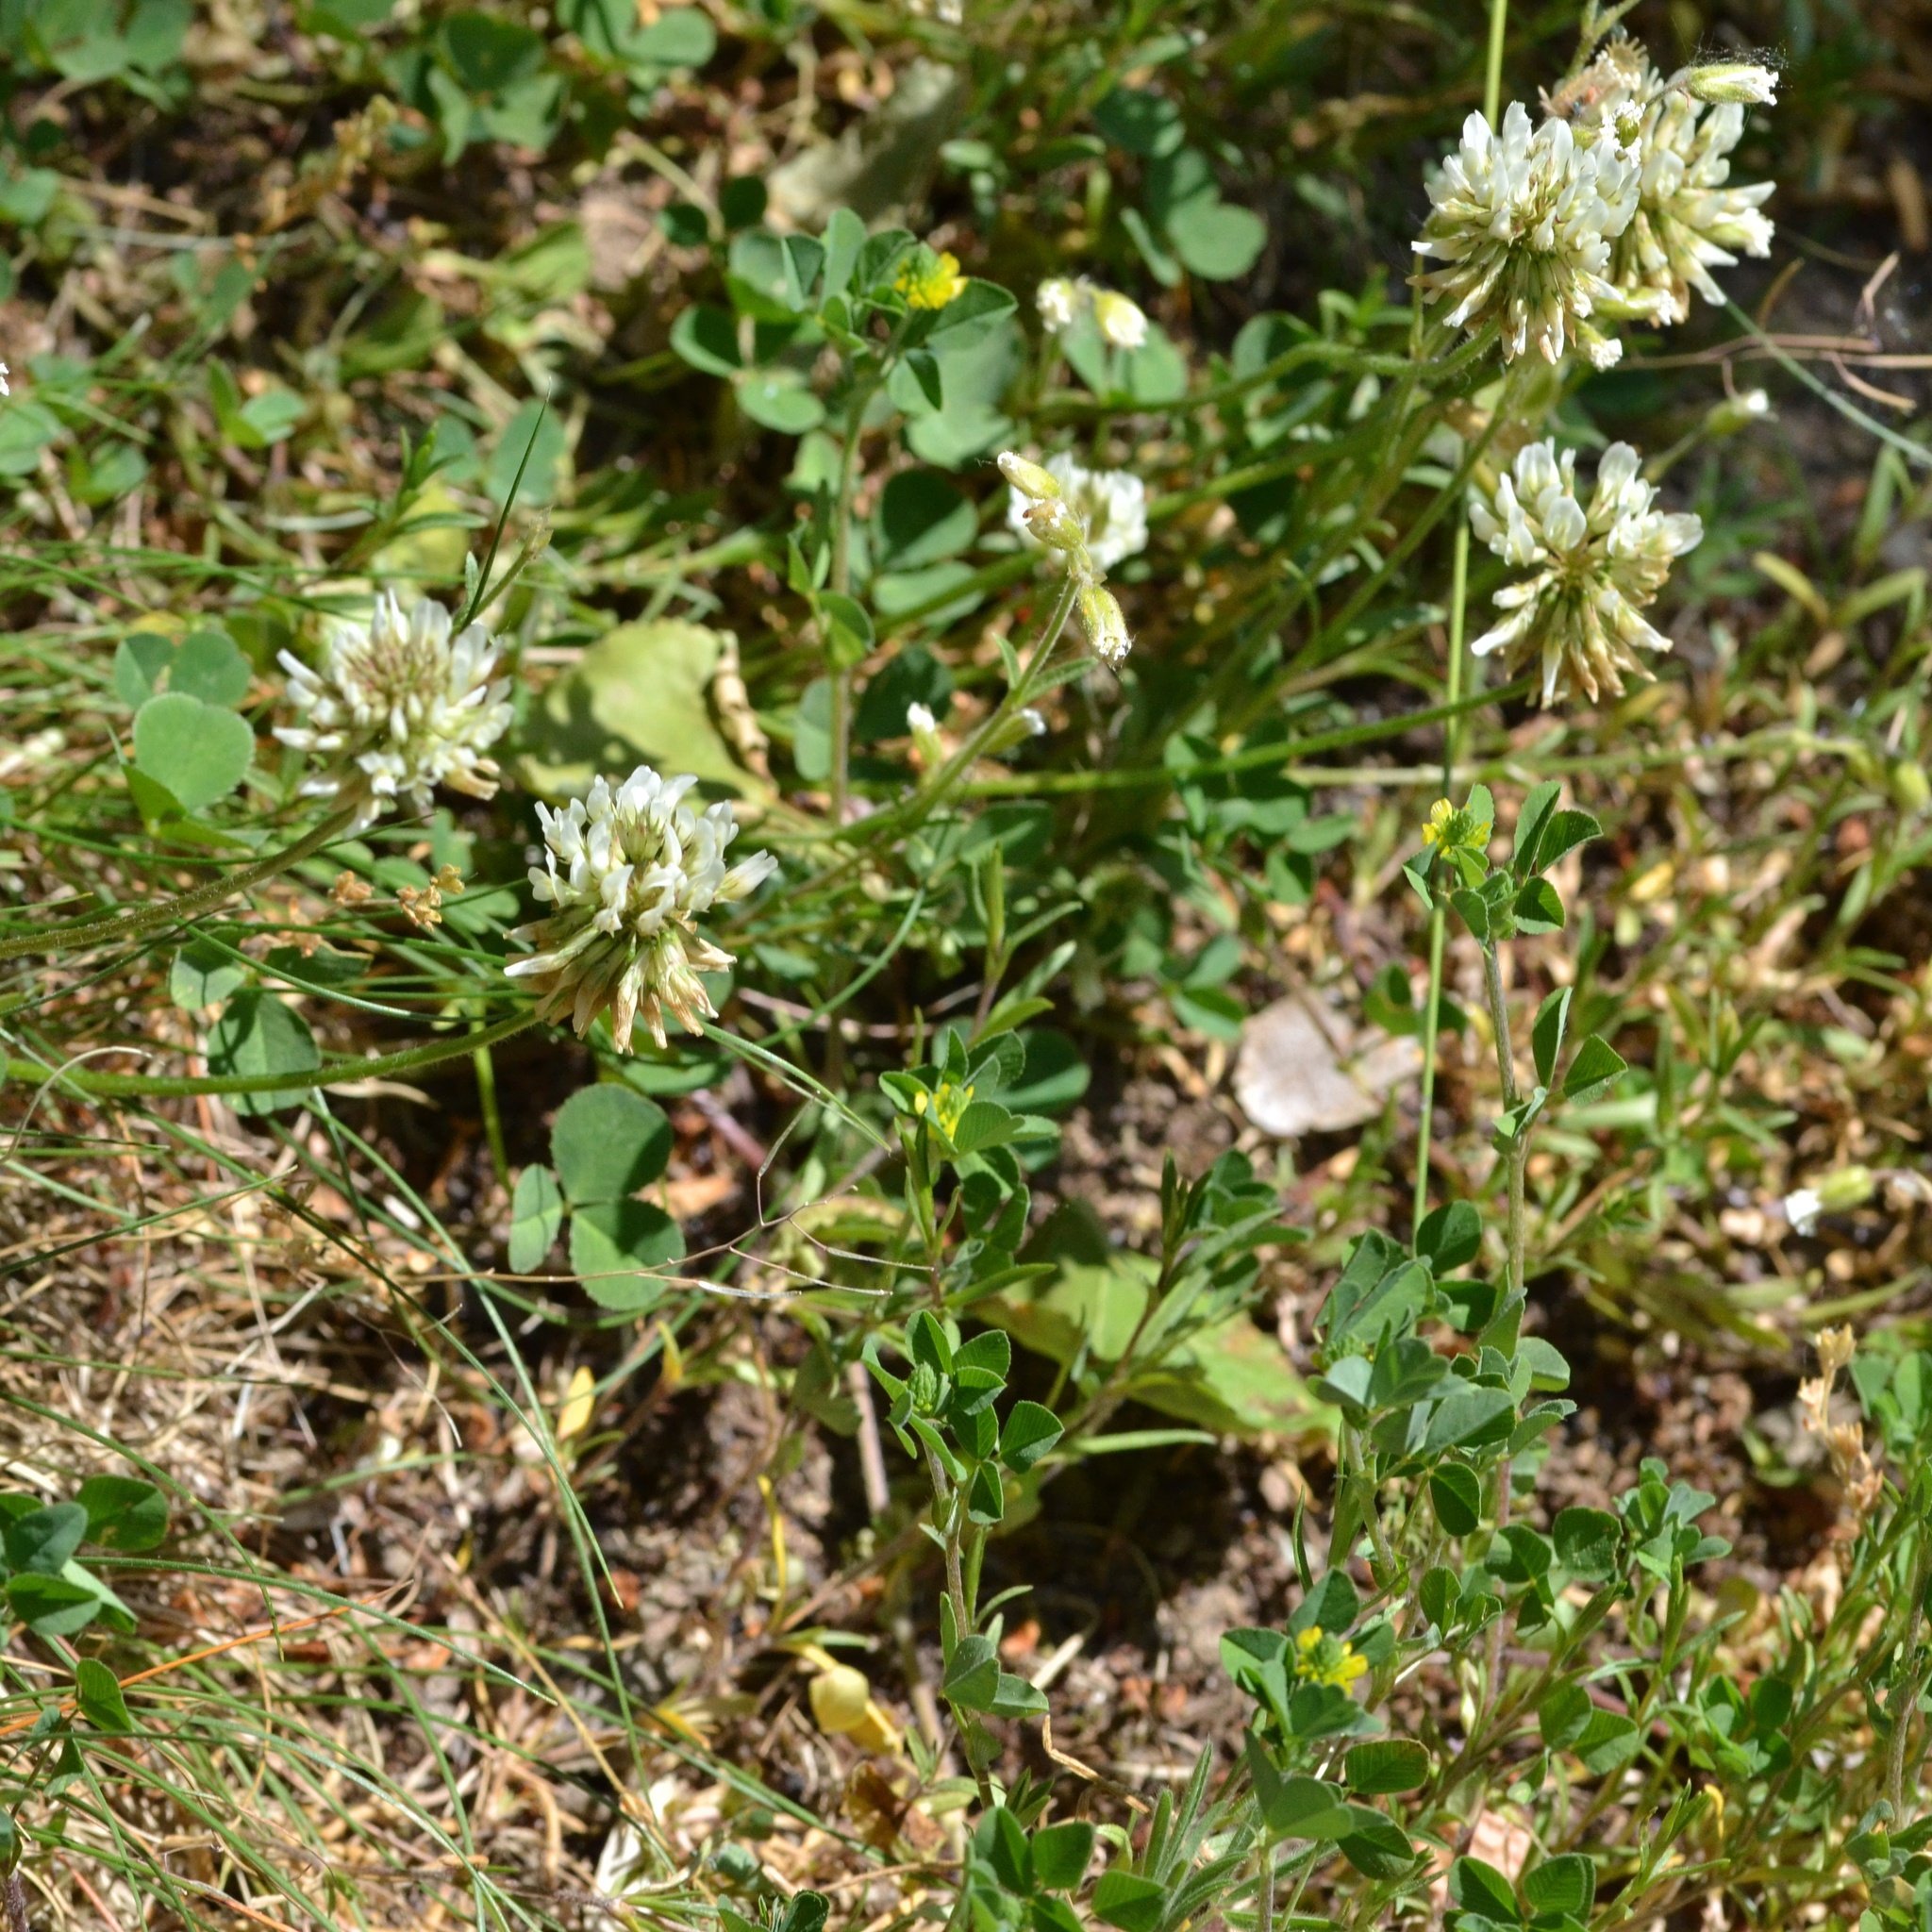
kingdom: Plantae
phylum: Tracheophyta
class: Magnoliopsida
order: Fabales
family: Fabaceae
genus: Trifolium
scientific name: Trifolium repens
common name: White clover
